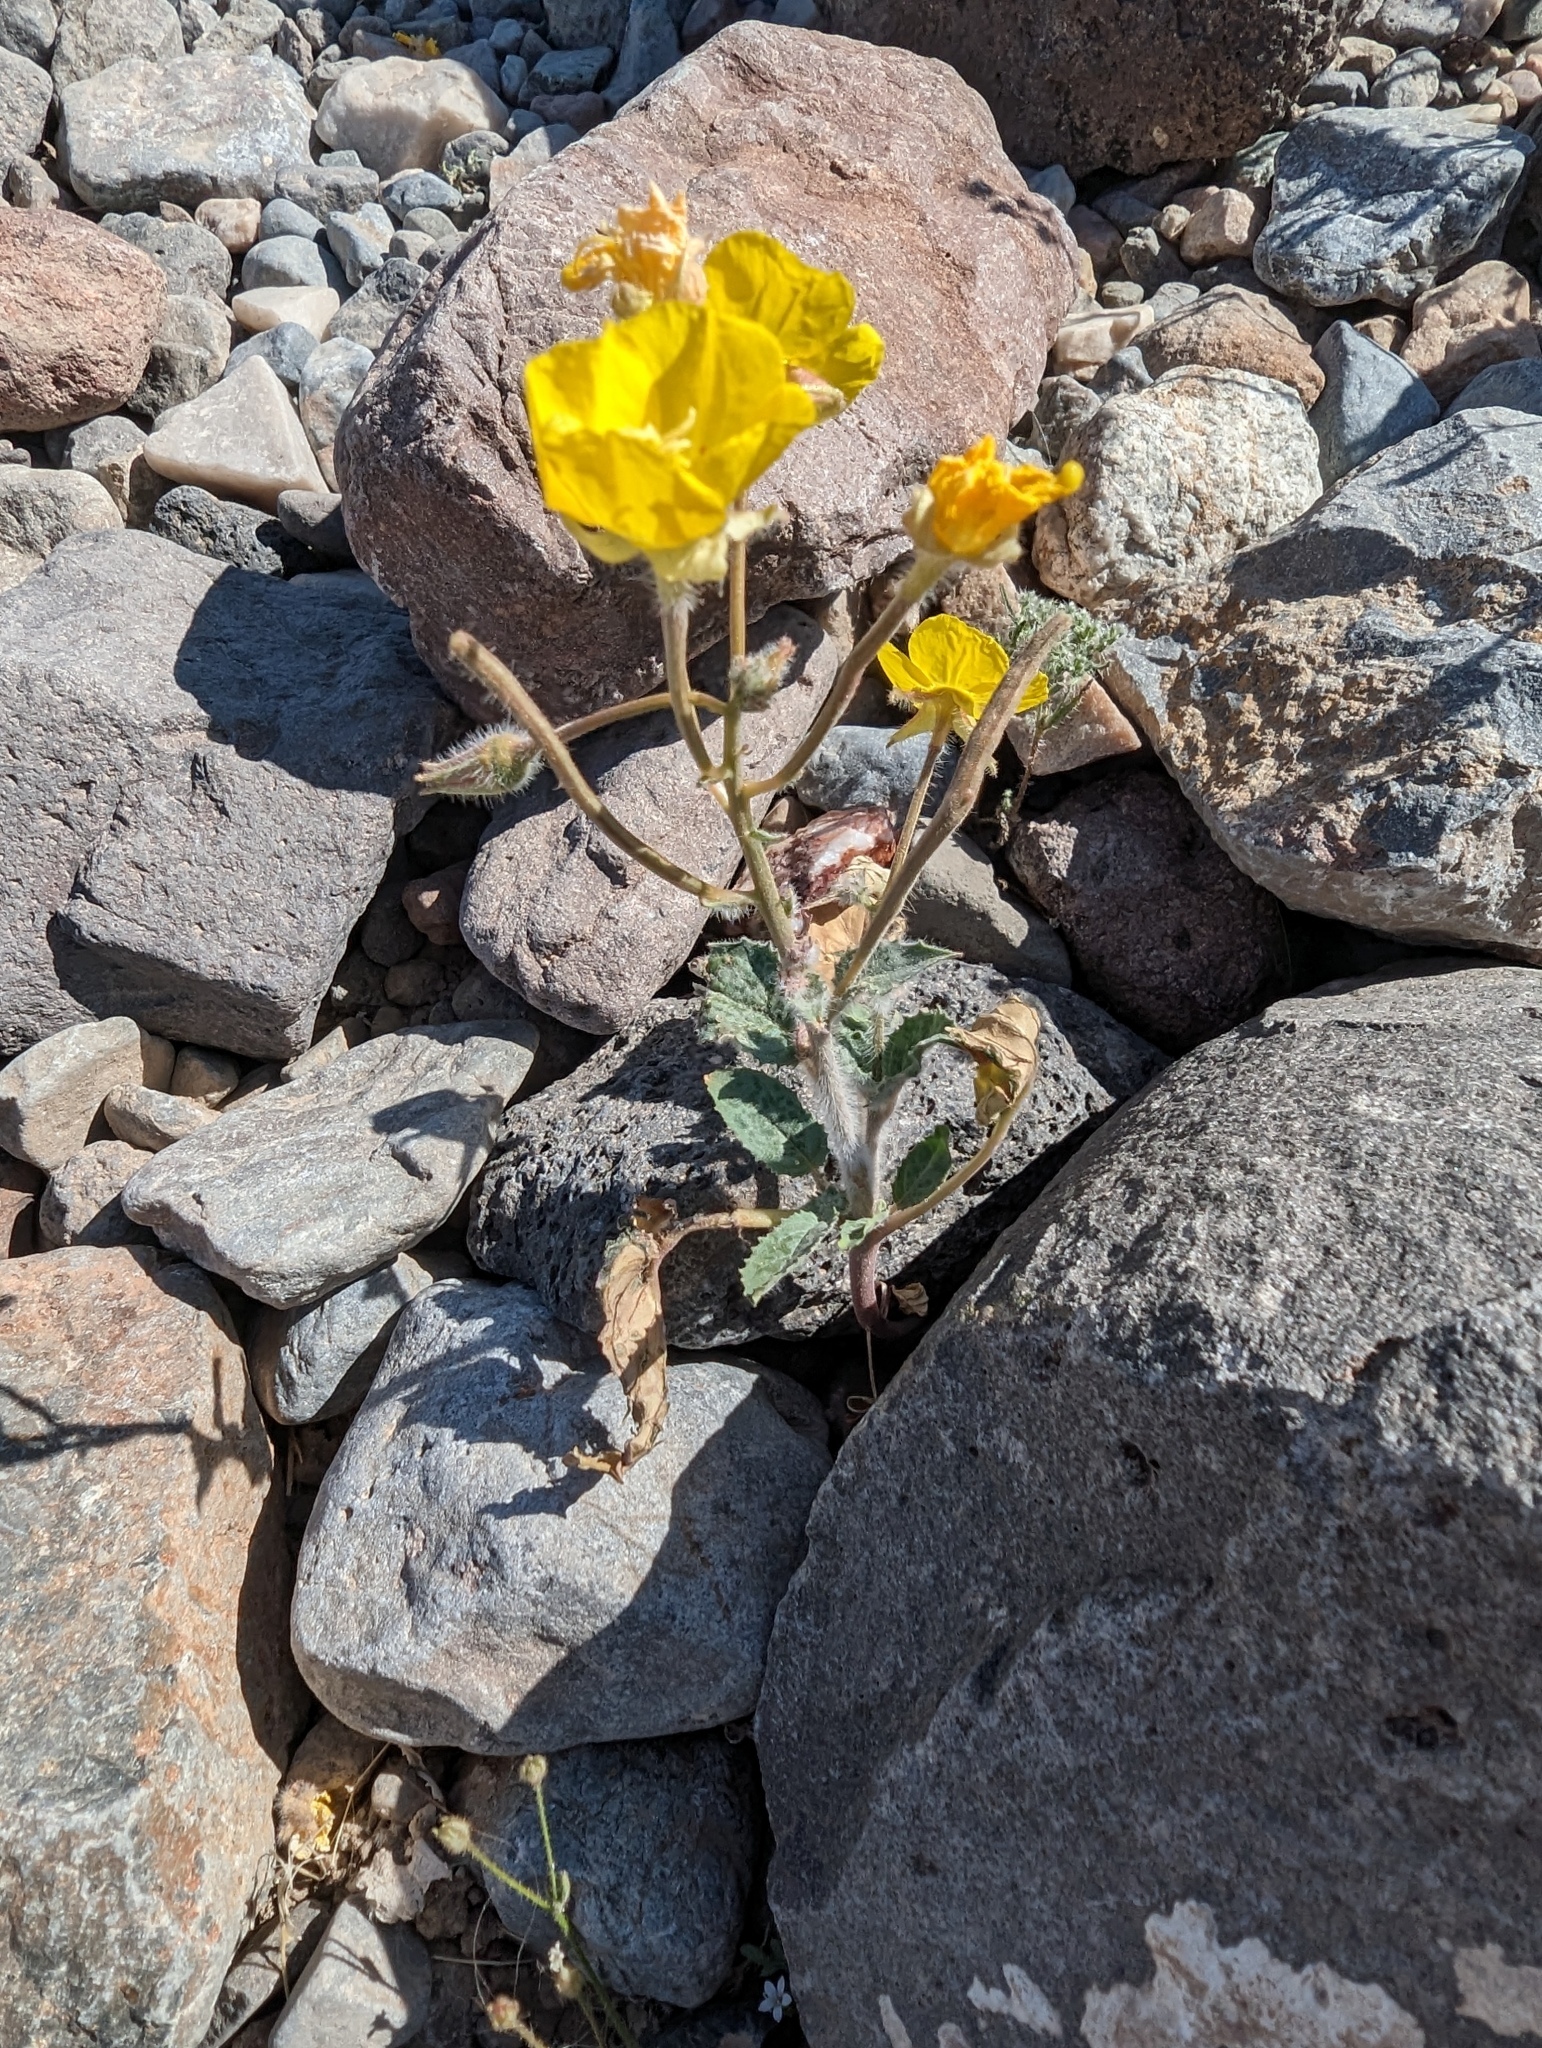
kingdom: Plantae
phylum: Tracheophyta
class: Magnoliopsida
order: Myrtales
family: Onagraceae
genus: Chylismia
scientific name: Chylismia brevipes
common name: Yellow cups
